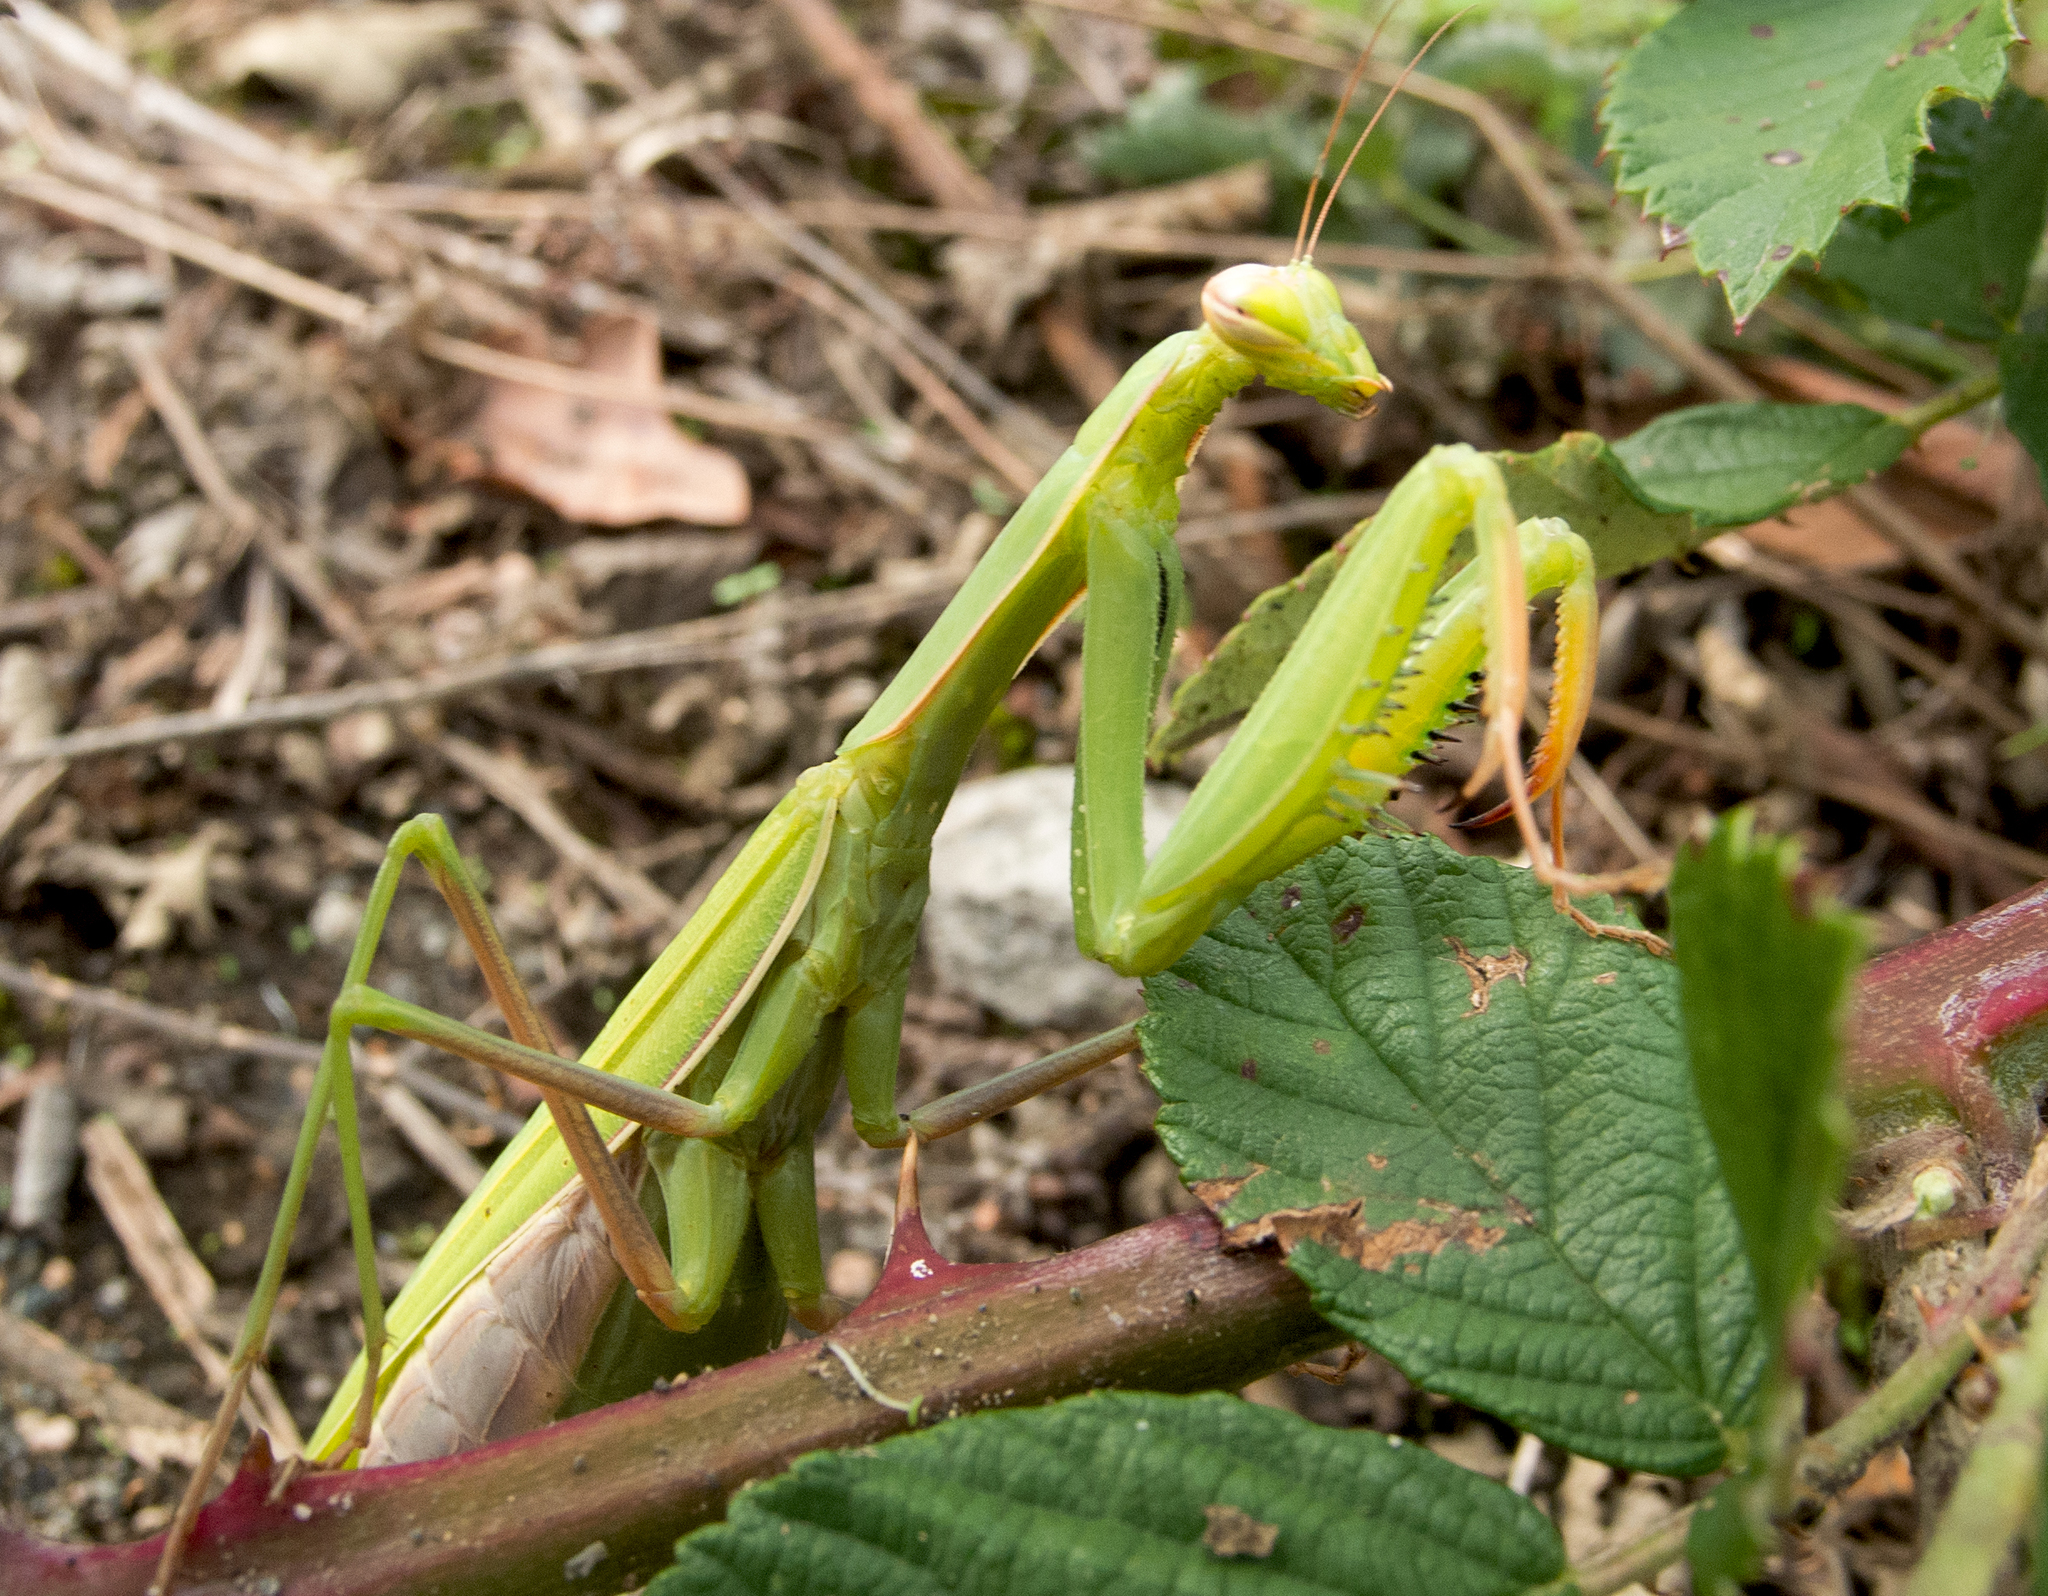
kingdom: Animalia
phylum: Arthropoda
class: Insecta
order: Mantodea
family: Mantidae
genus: Mantis
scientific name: Mantis religiosa
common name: Praying mantis
